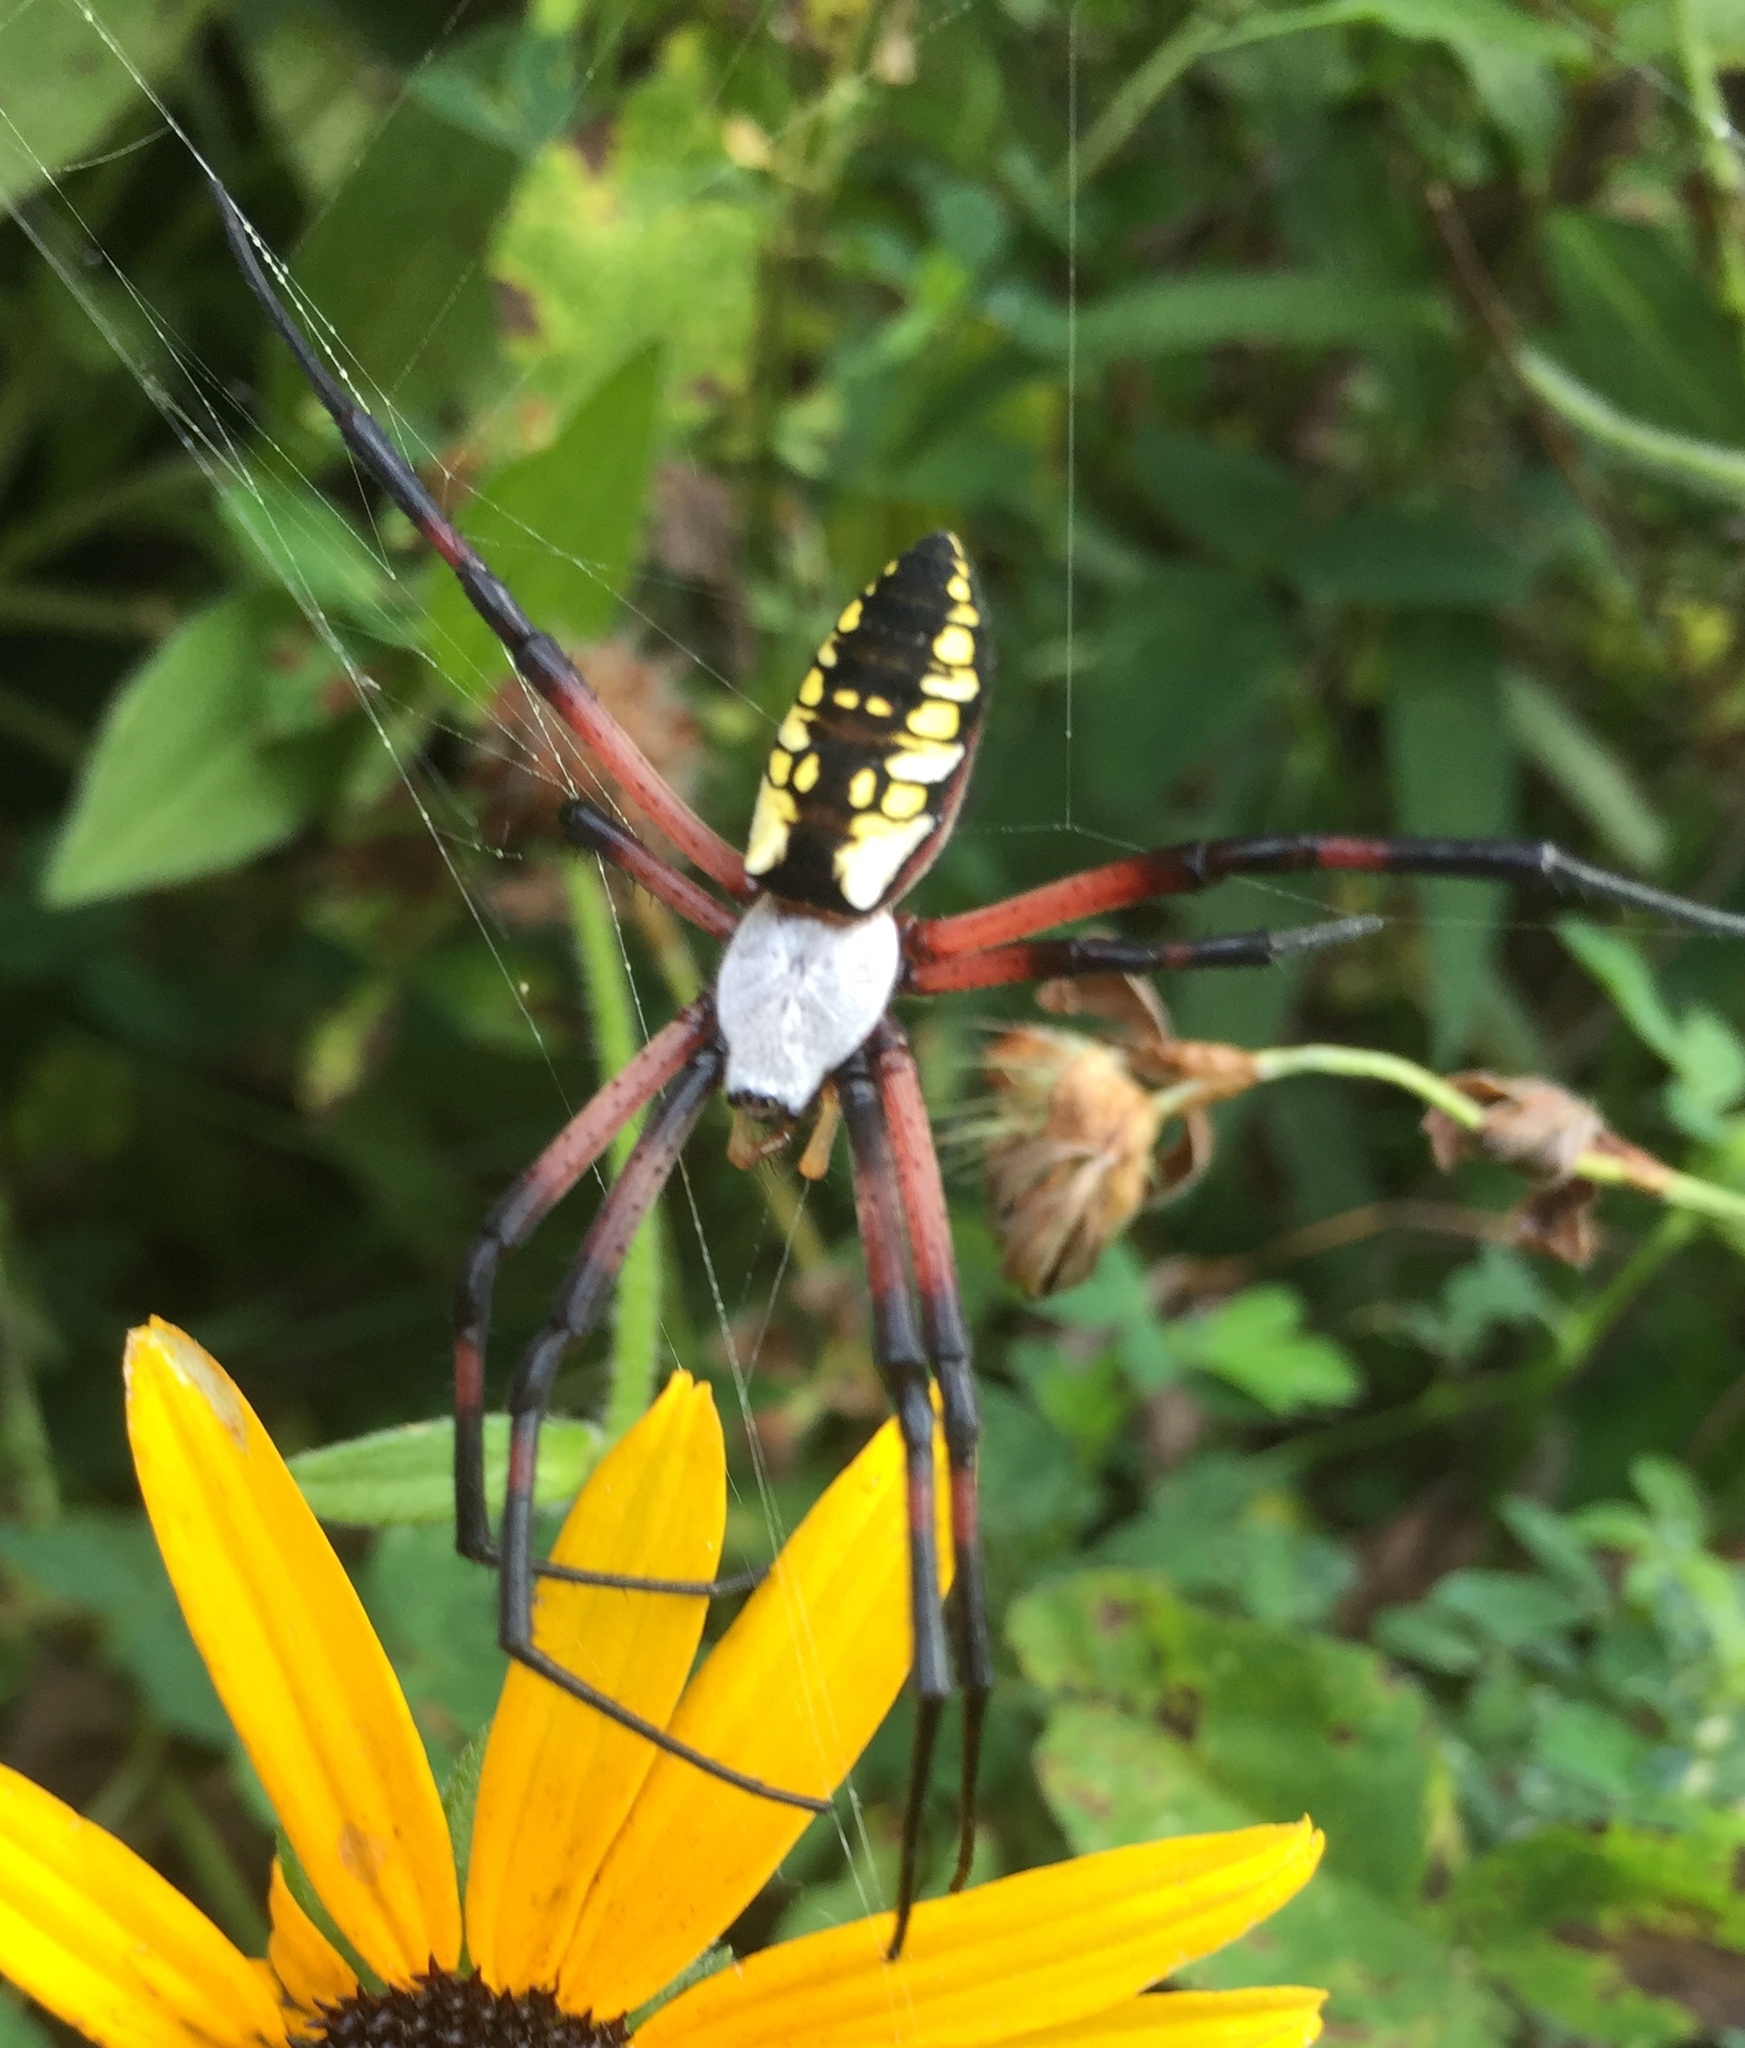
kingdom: Animalia
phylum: Arthropoda
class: Arachnida
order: Araneae
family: Araneidae
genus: Argiope
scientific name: Argiope aurantia
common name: Orb weavers
